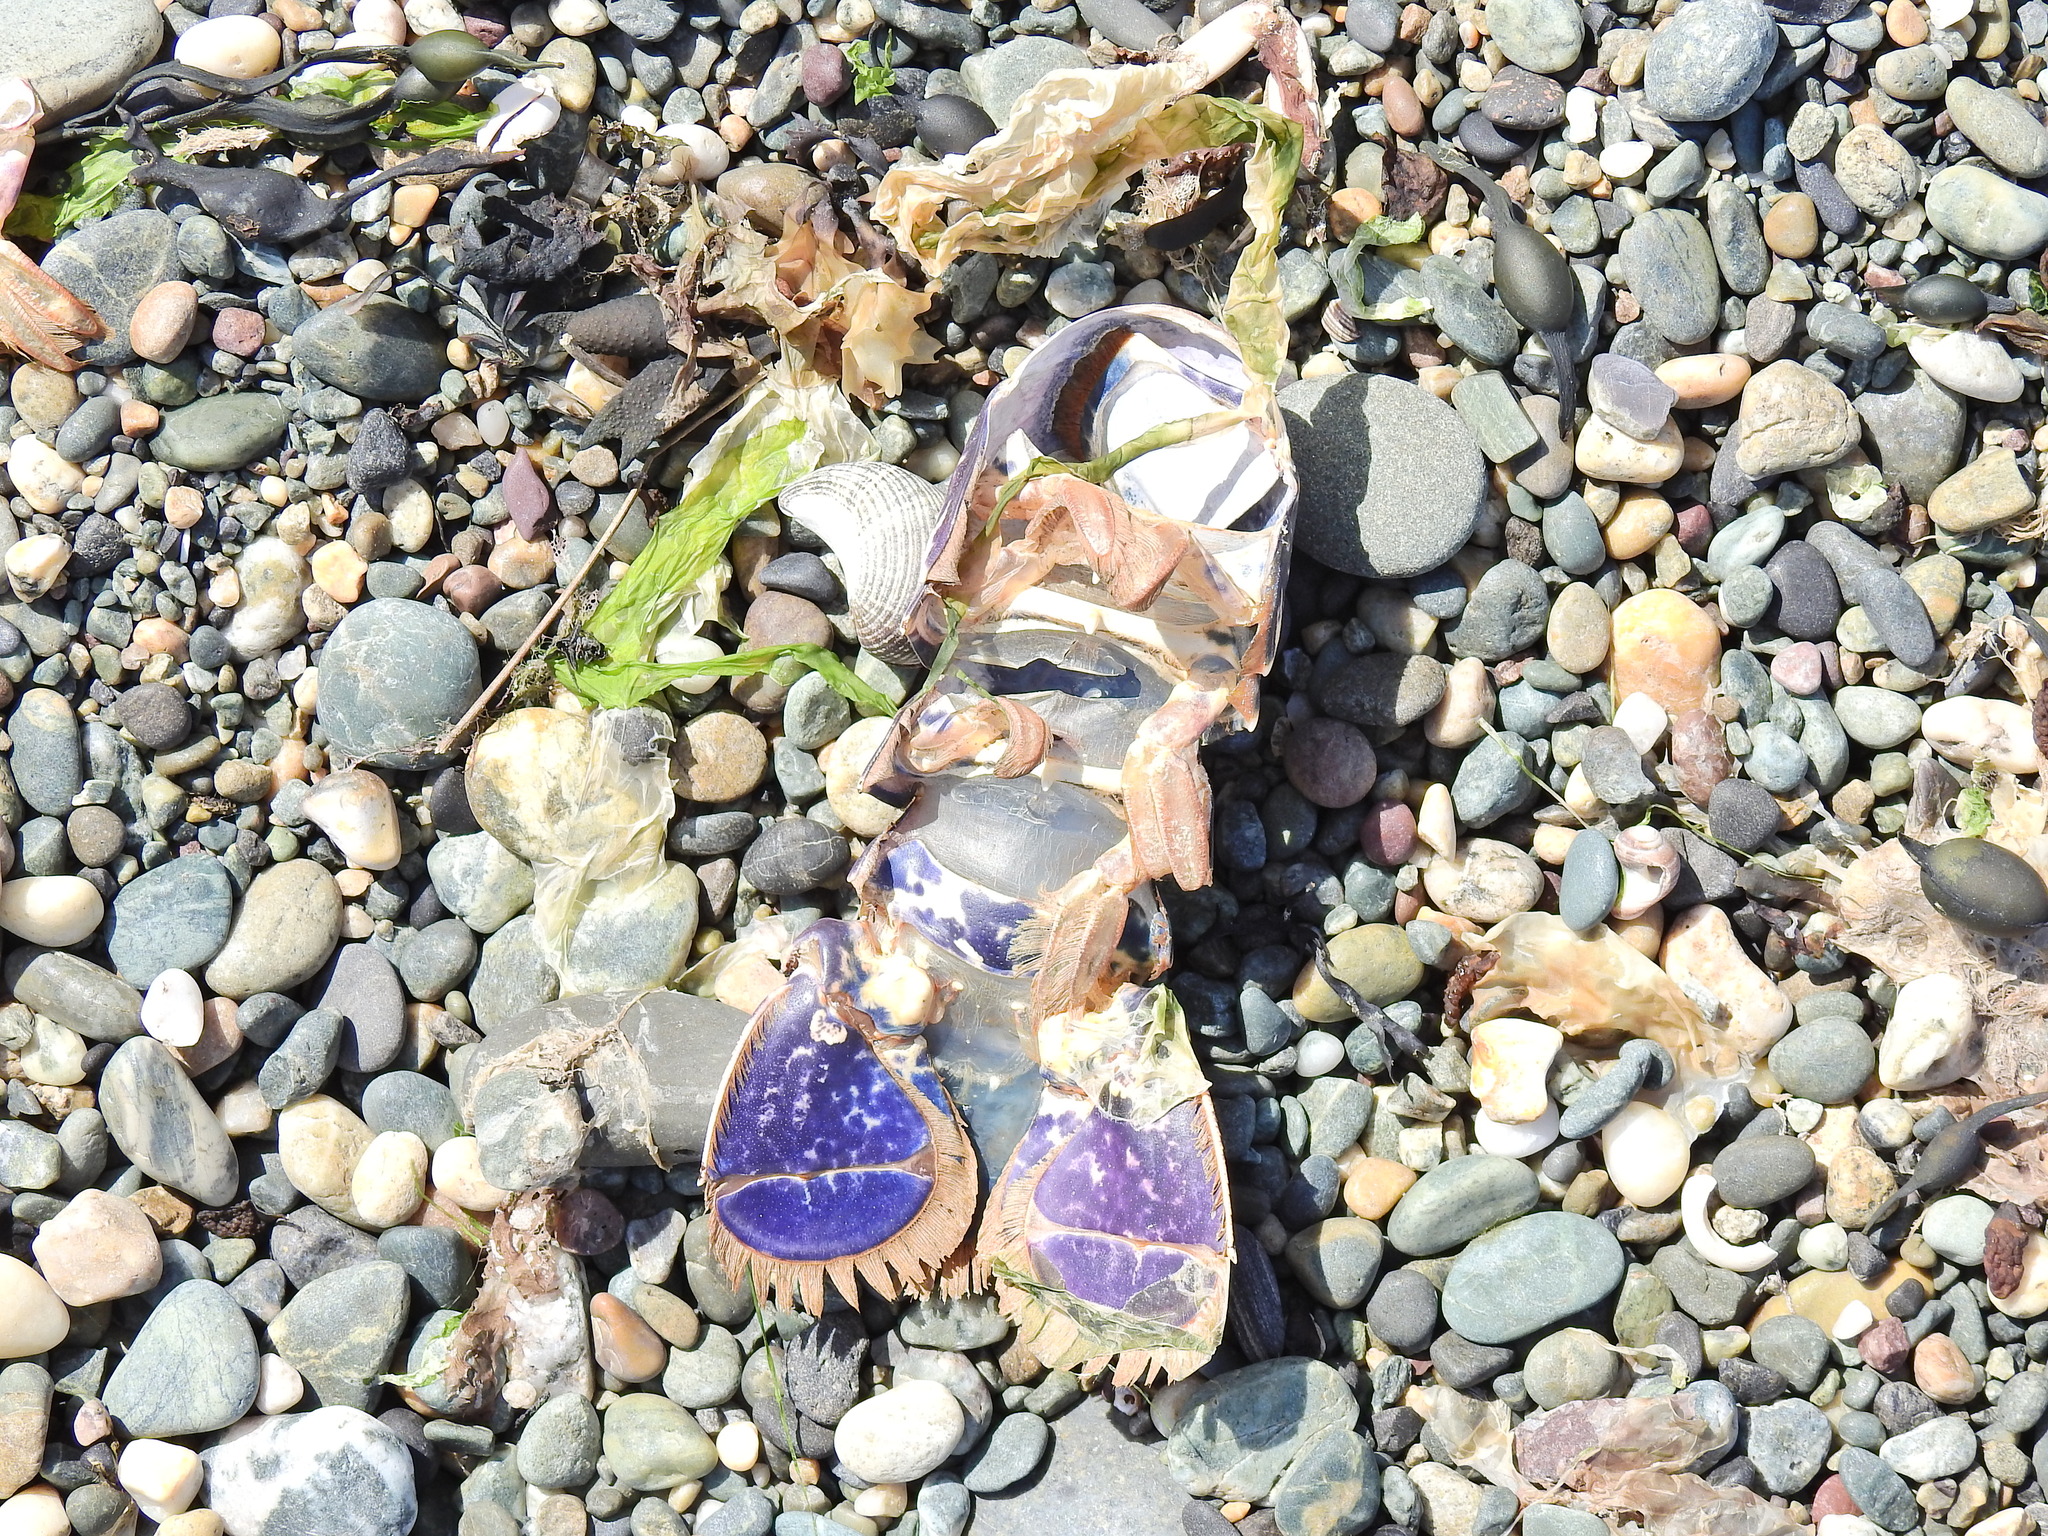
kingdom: Animalia
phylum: Arthropoda
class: Malacostraca
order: Decapoda
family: Nephropidae
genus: Homarus
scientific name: Homarus gammarus
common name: European lobster
